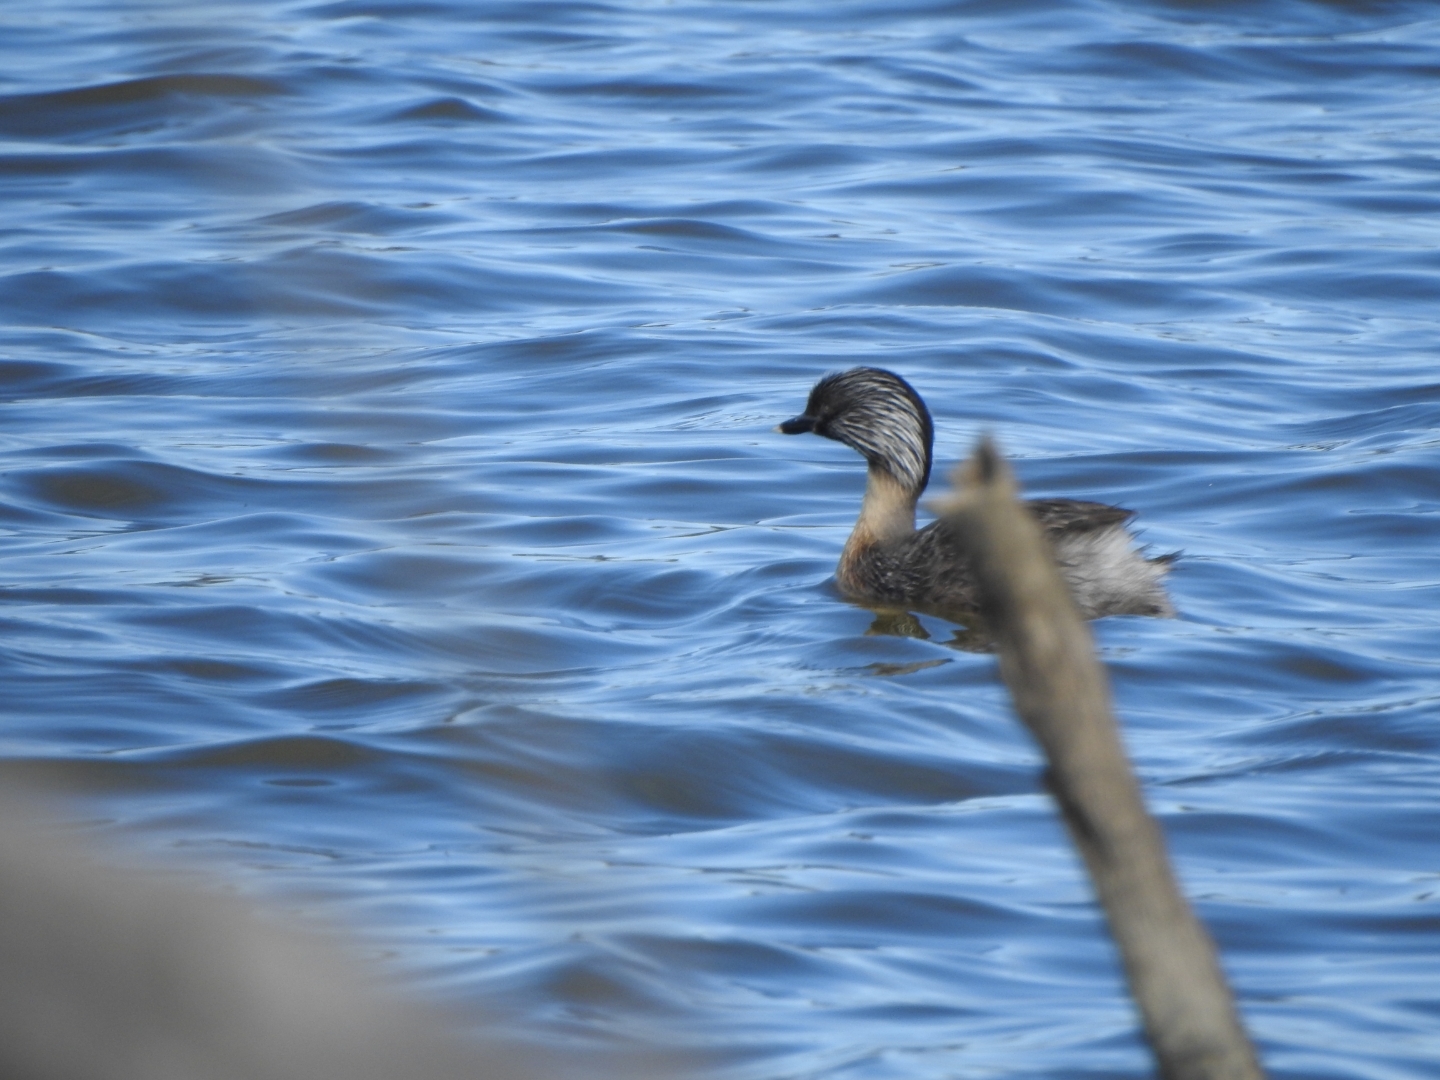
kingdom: Animalia
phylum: Chordata
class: Aves
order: Podicipediformes
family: Podicipedidae
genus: Poliocephalus
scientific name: Poliocephalus poliocephalus
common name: Hoary-headed grebe
